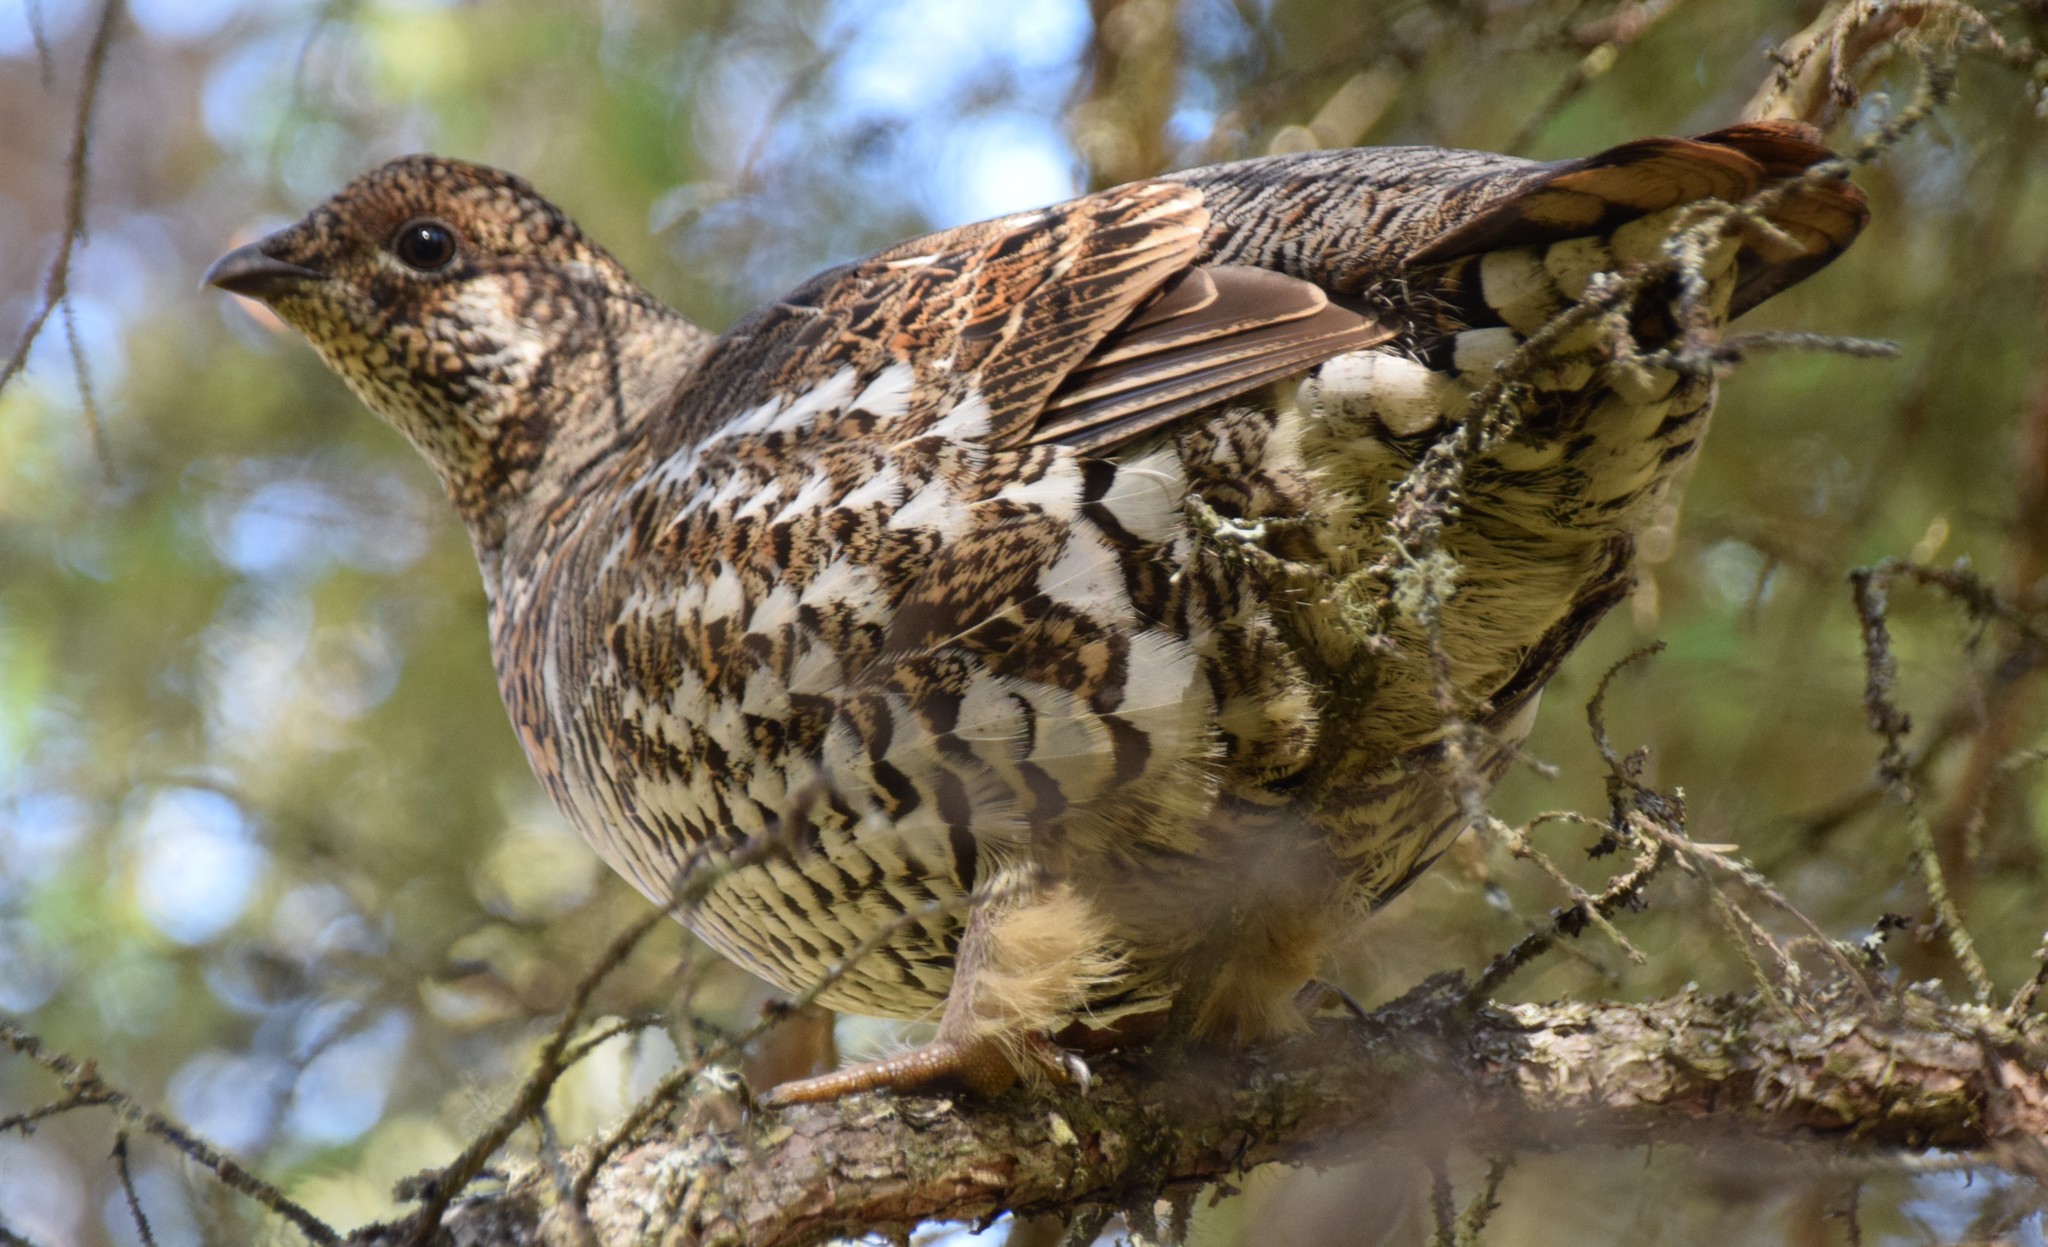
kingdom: Animalia
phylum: Chordata
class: Aves
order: Galliformes
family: Phasianidae
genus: Canachites
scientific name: Canachites canadensis
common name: Spruce grouse
